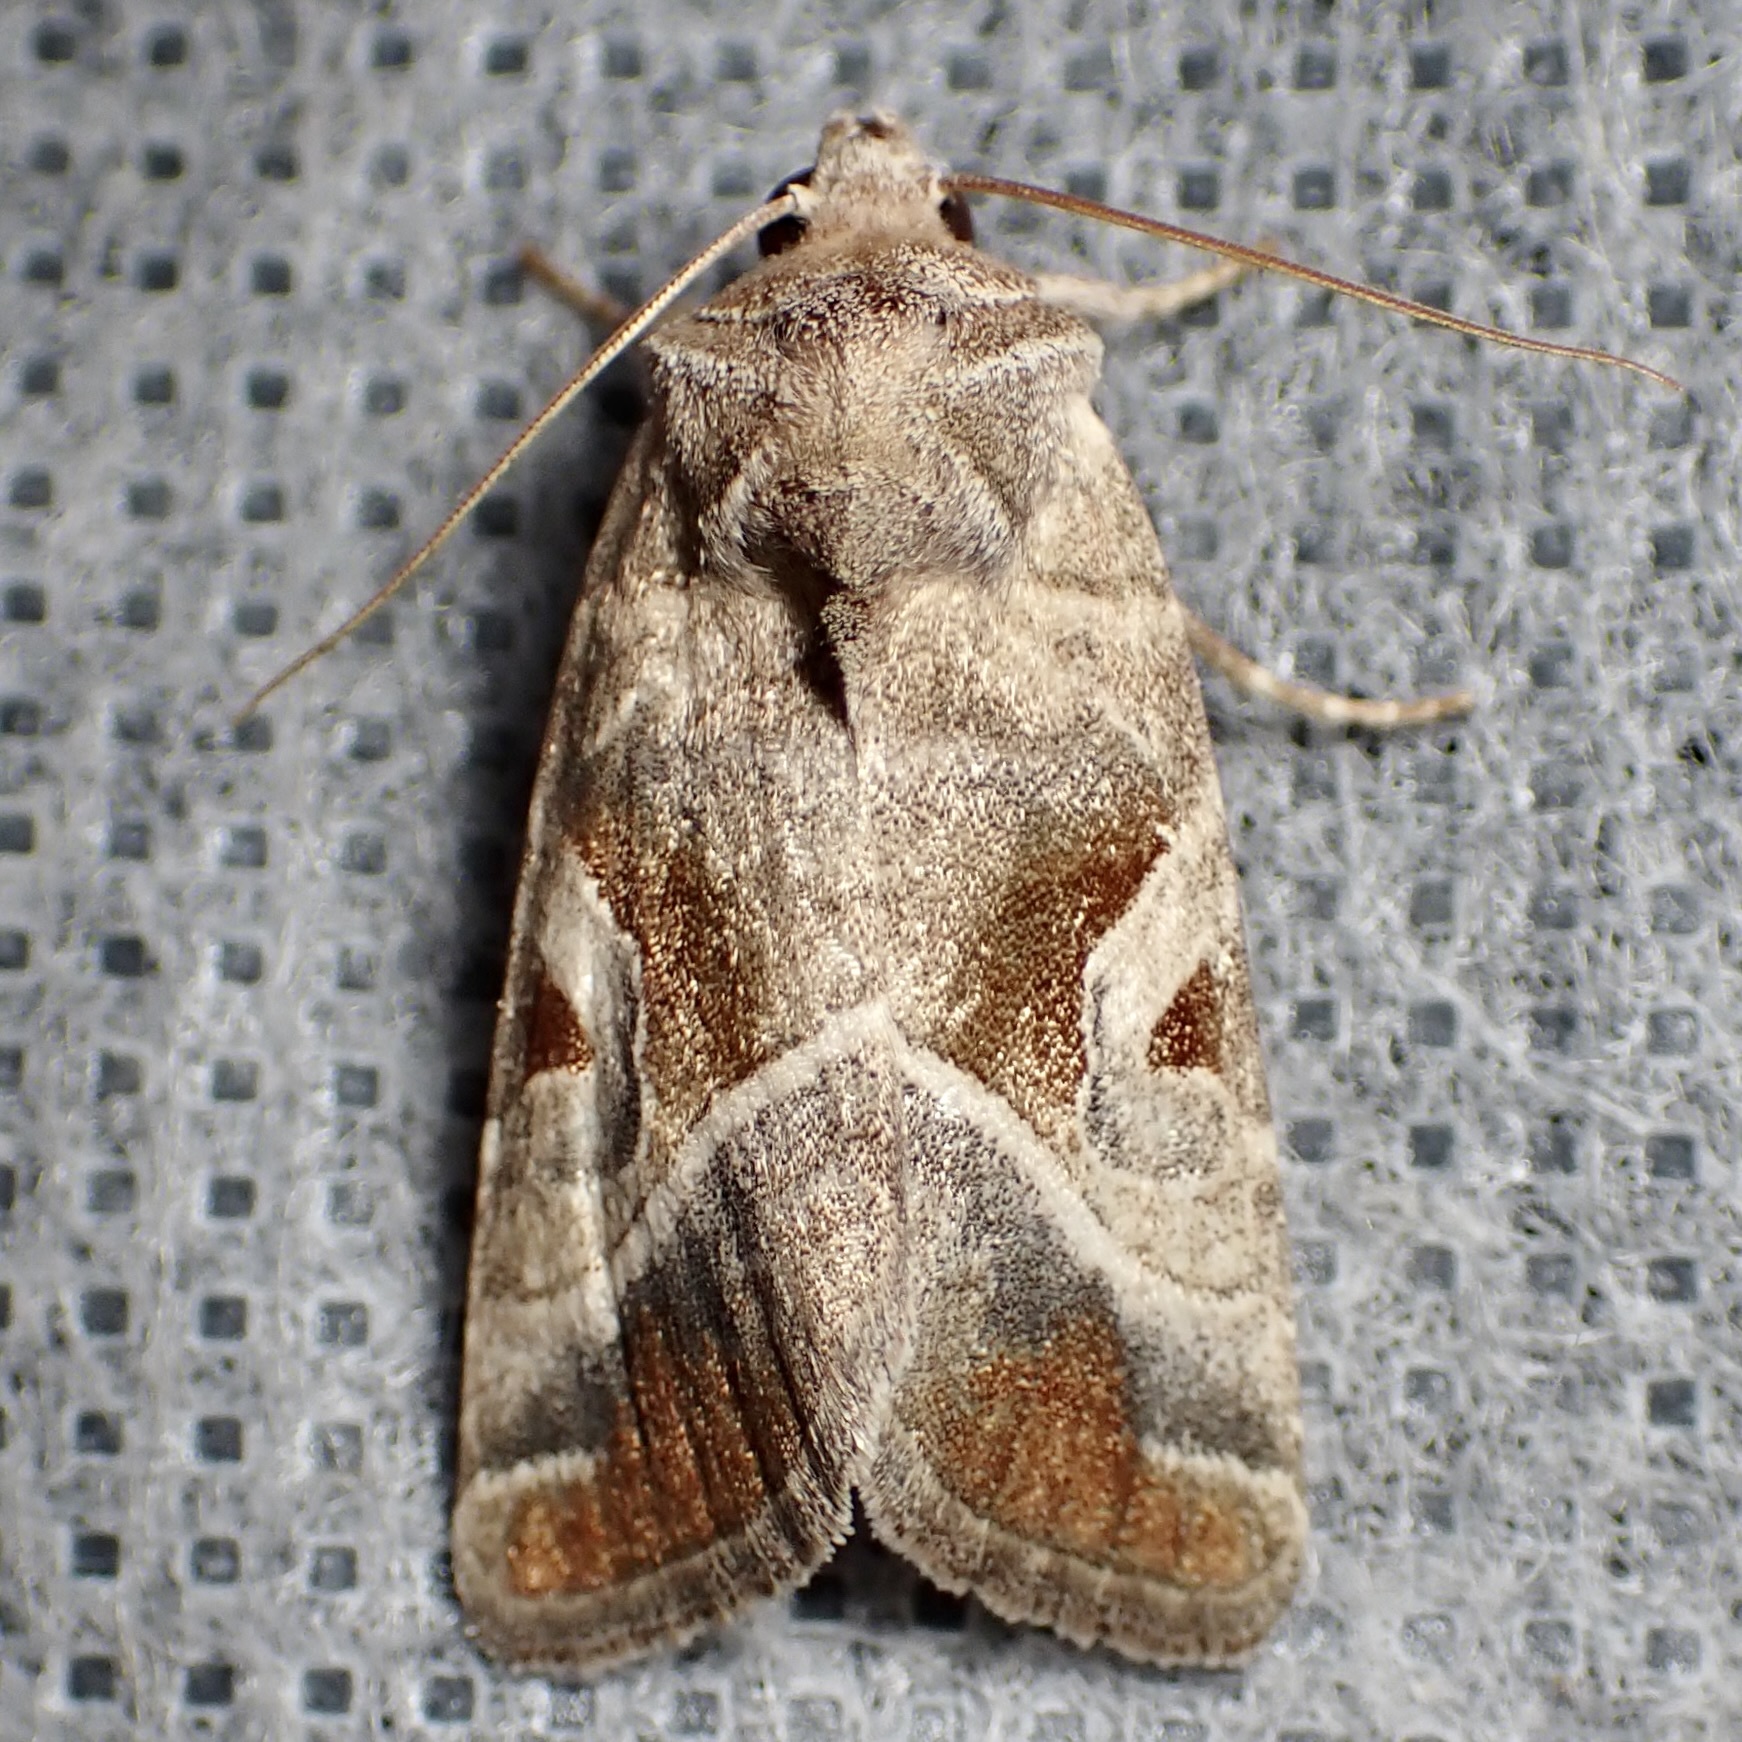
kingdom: Animalia
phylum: Arthropoda
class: Insecta
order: Lepidoptera
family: Noctuidae
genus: Hexorthodes
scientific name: Hexorthodes accurata
